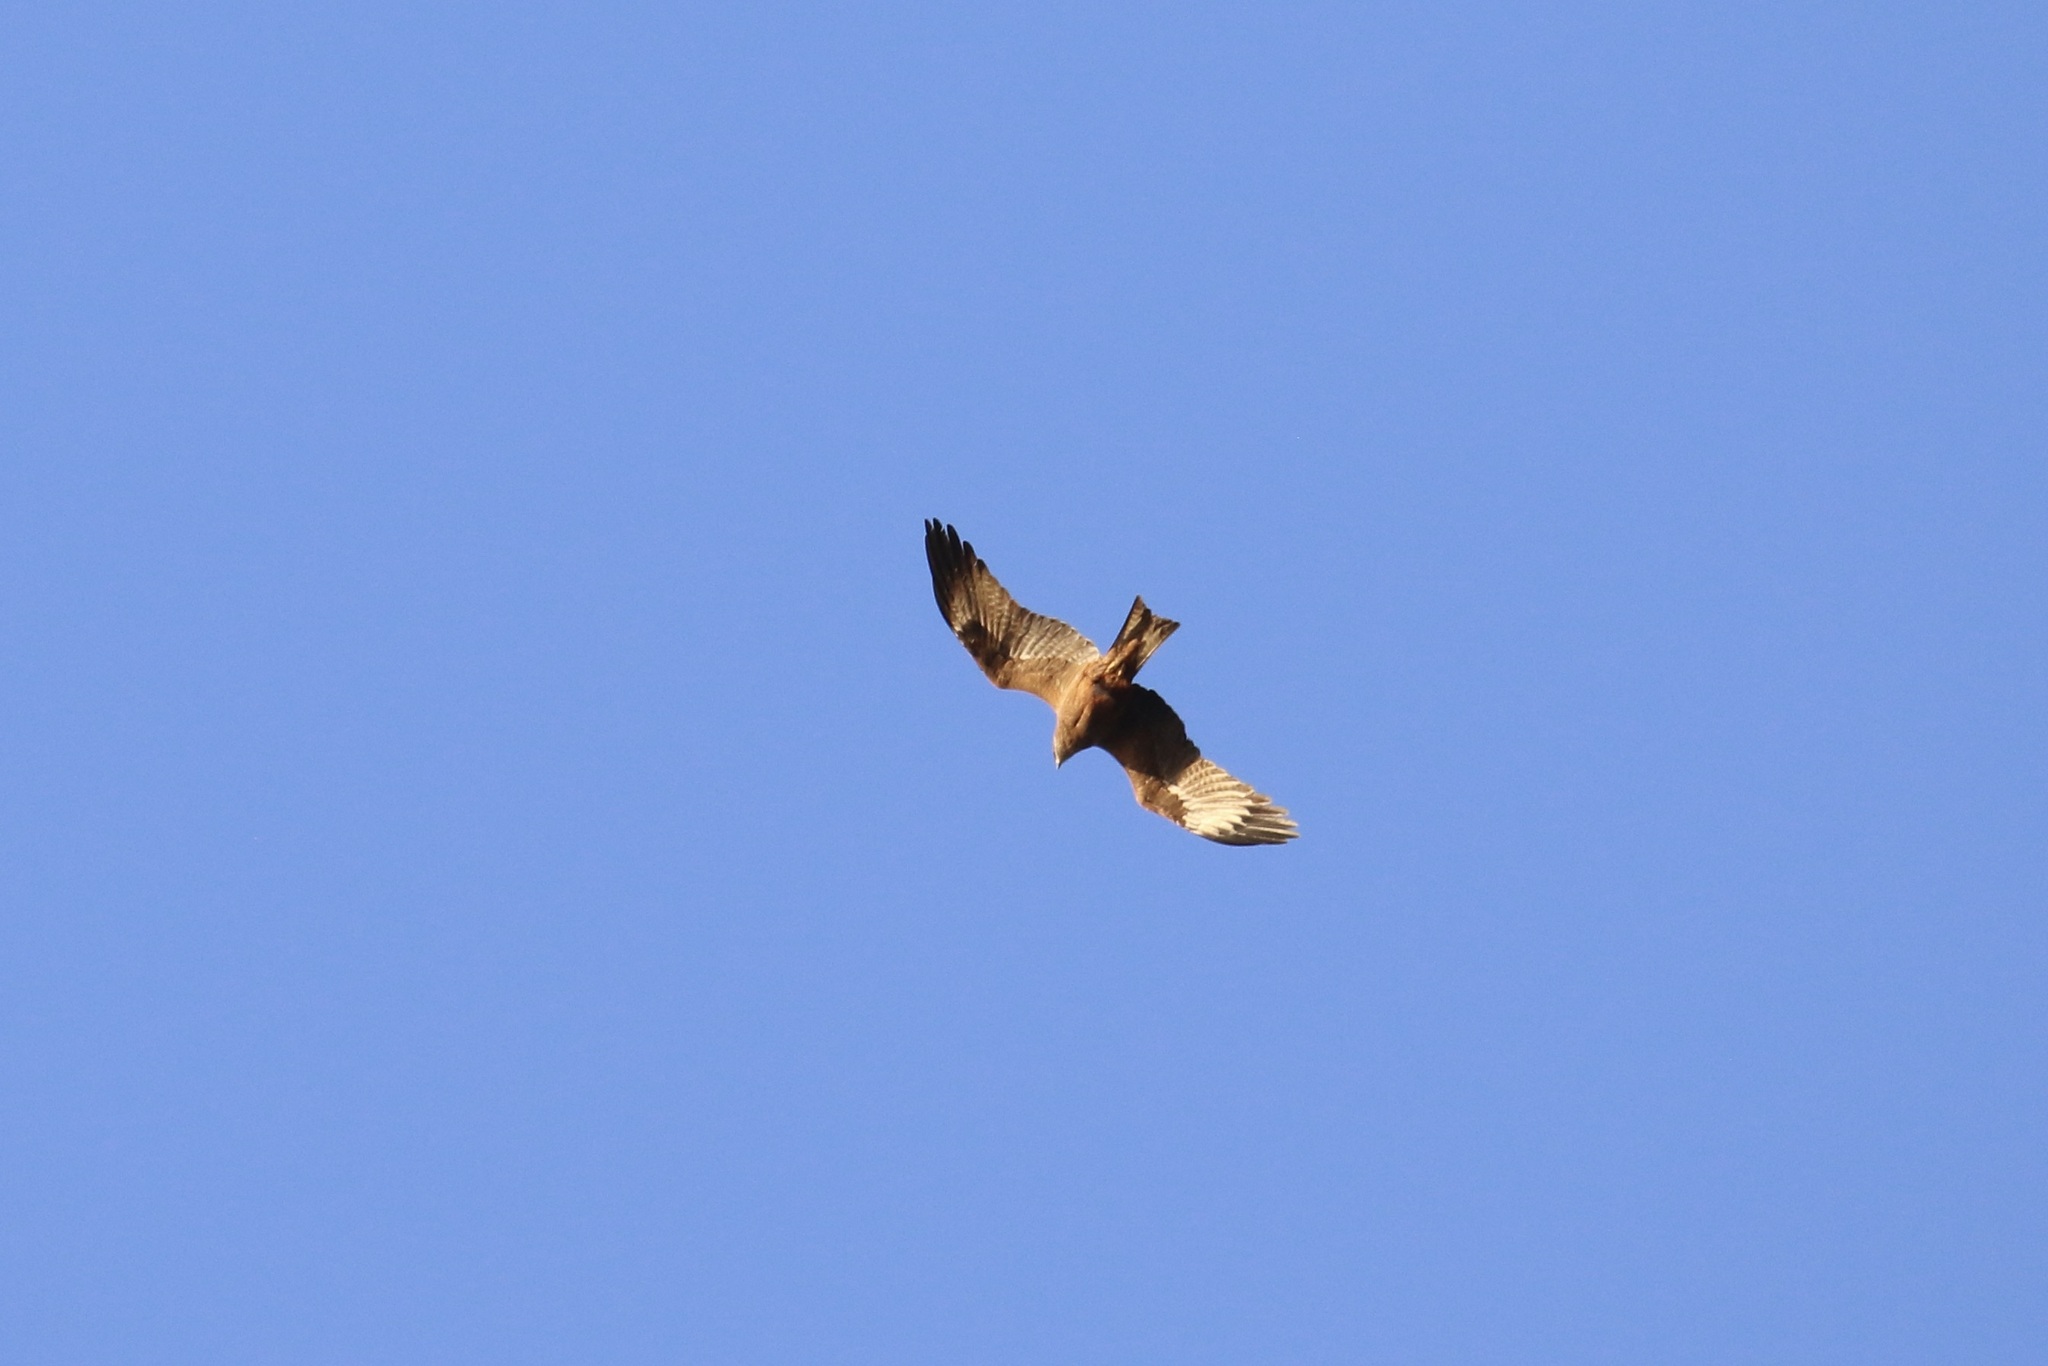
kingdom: Animalia
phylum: Chordata
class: Aves
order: Accipitriformes
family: Accipitridae
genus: Milvus
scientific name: Milvus migrans
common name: Black kite
